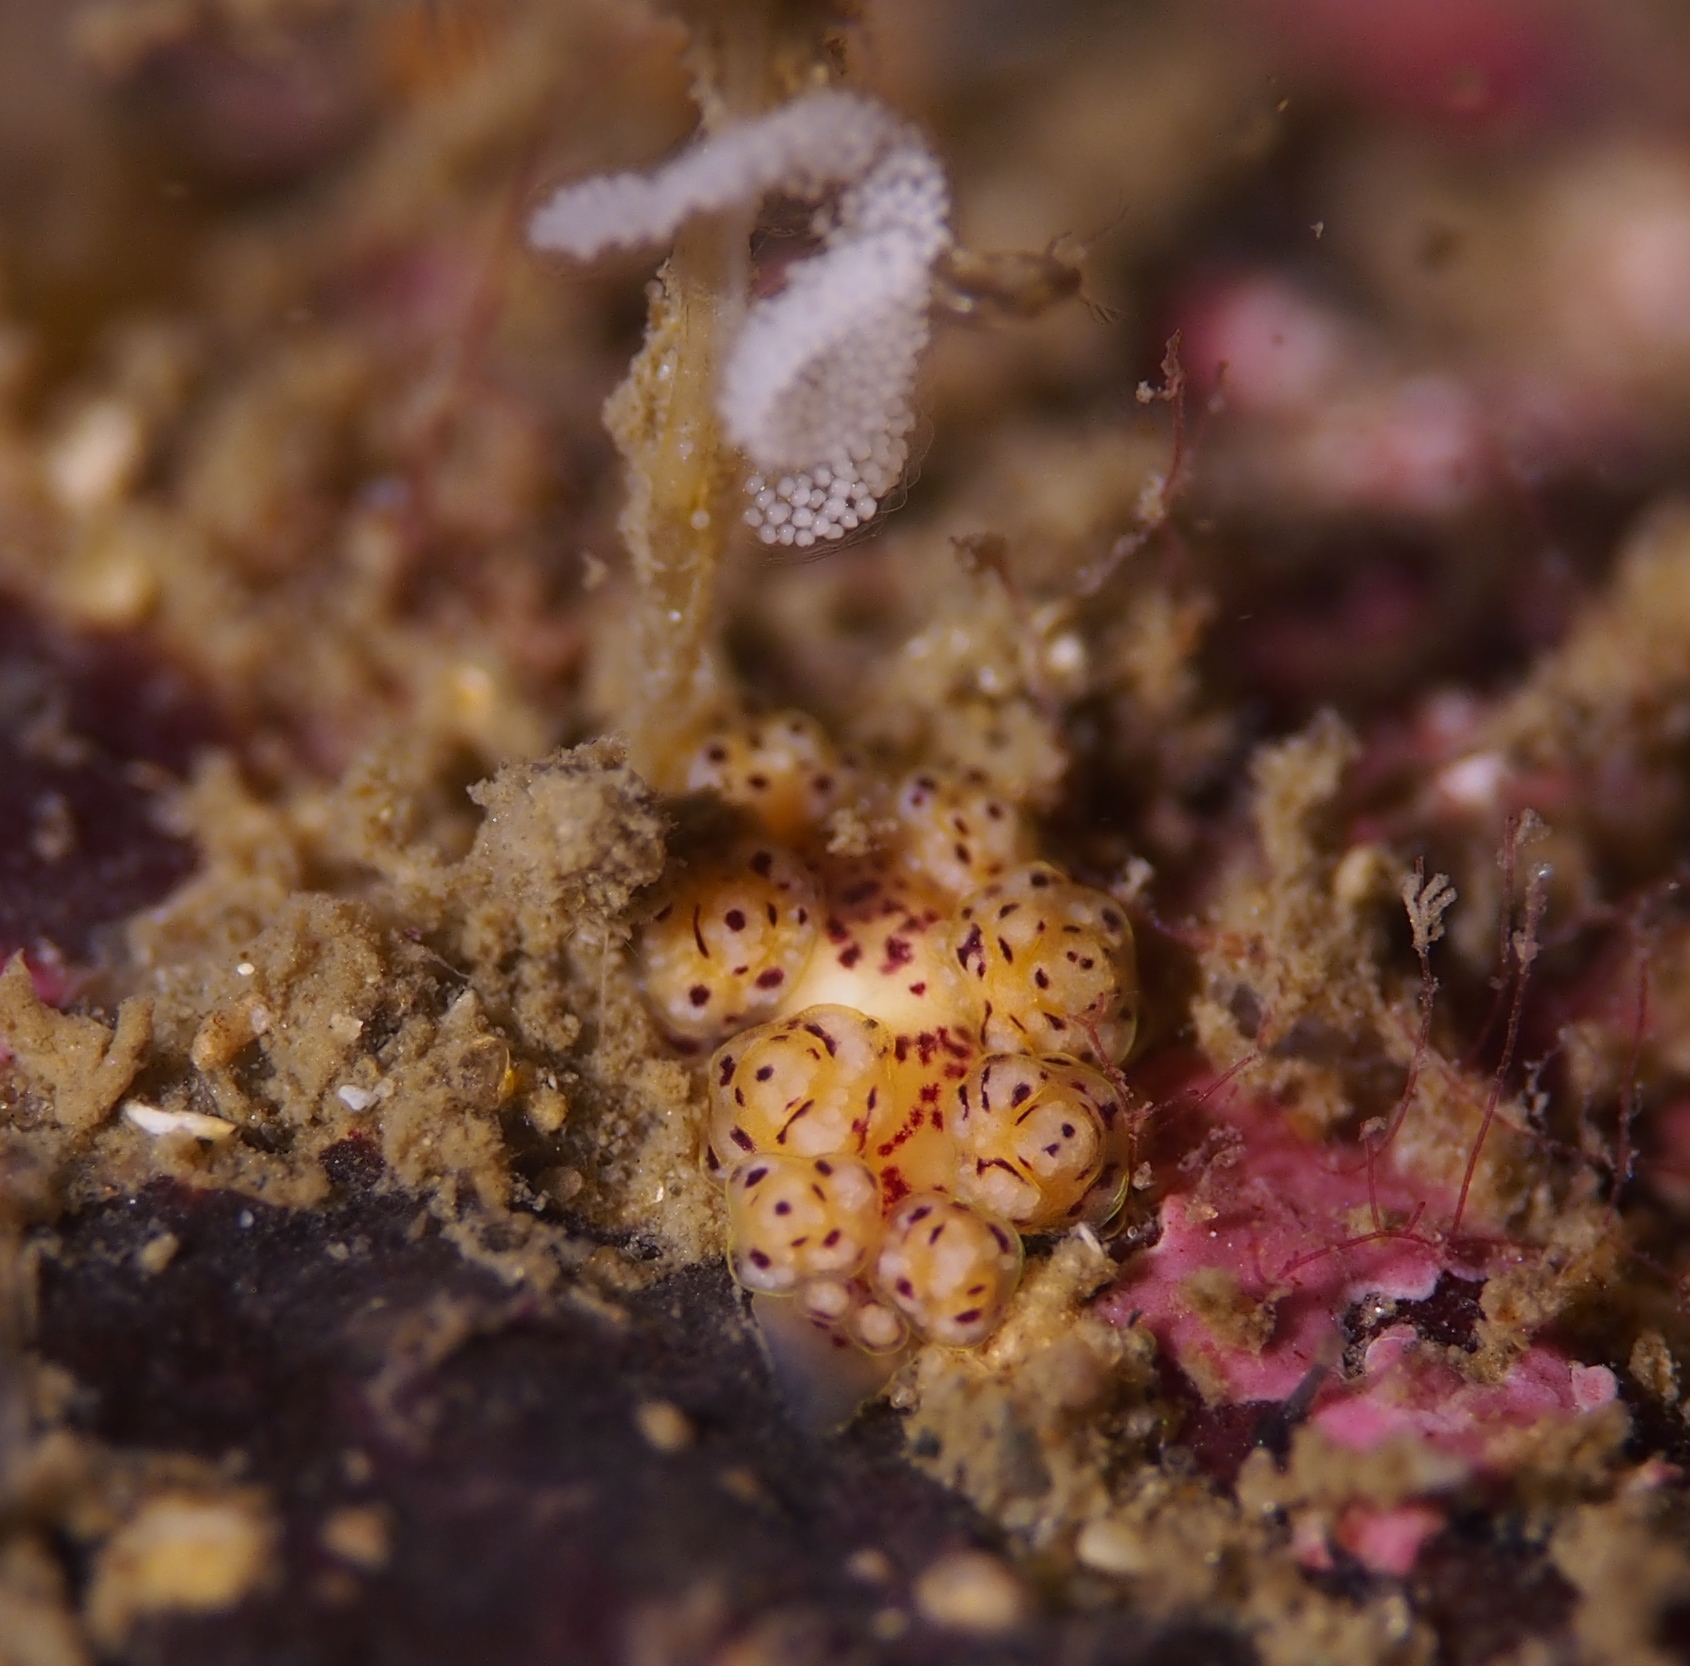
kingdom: Animalia
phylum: Mollusca
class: Gastropoda
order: Nudibranchia
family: Dotidae
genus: Doto
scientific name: Doto dunnei
